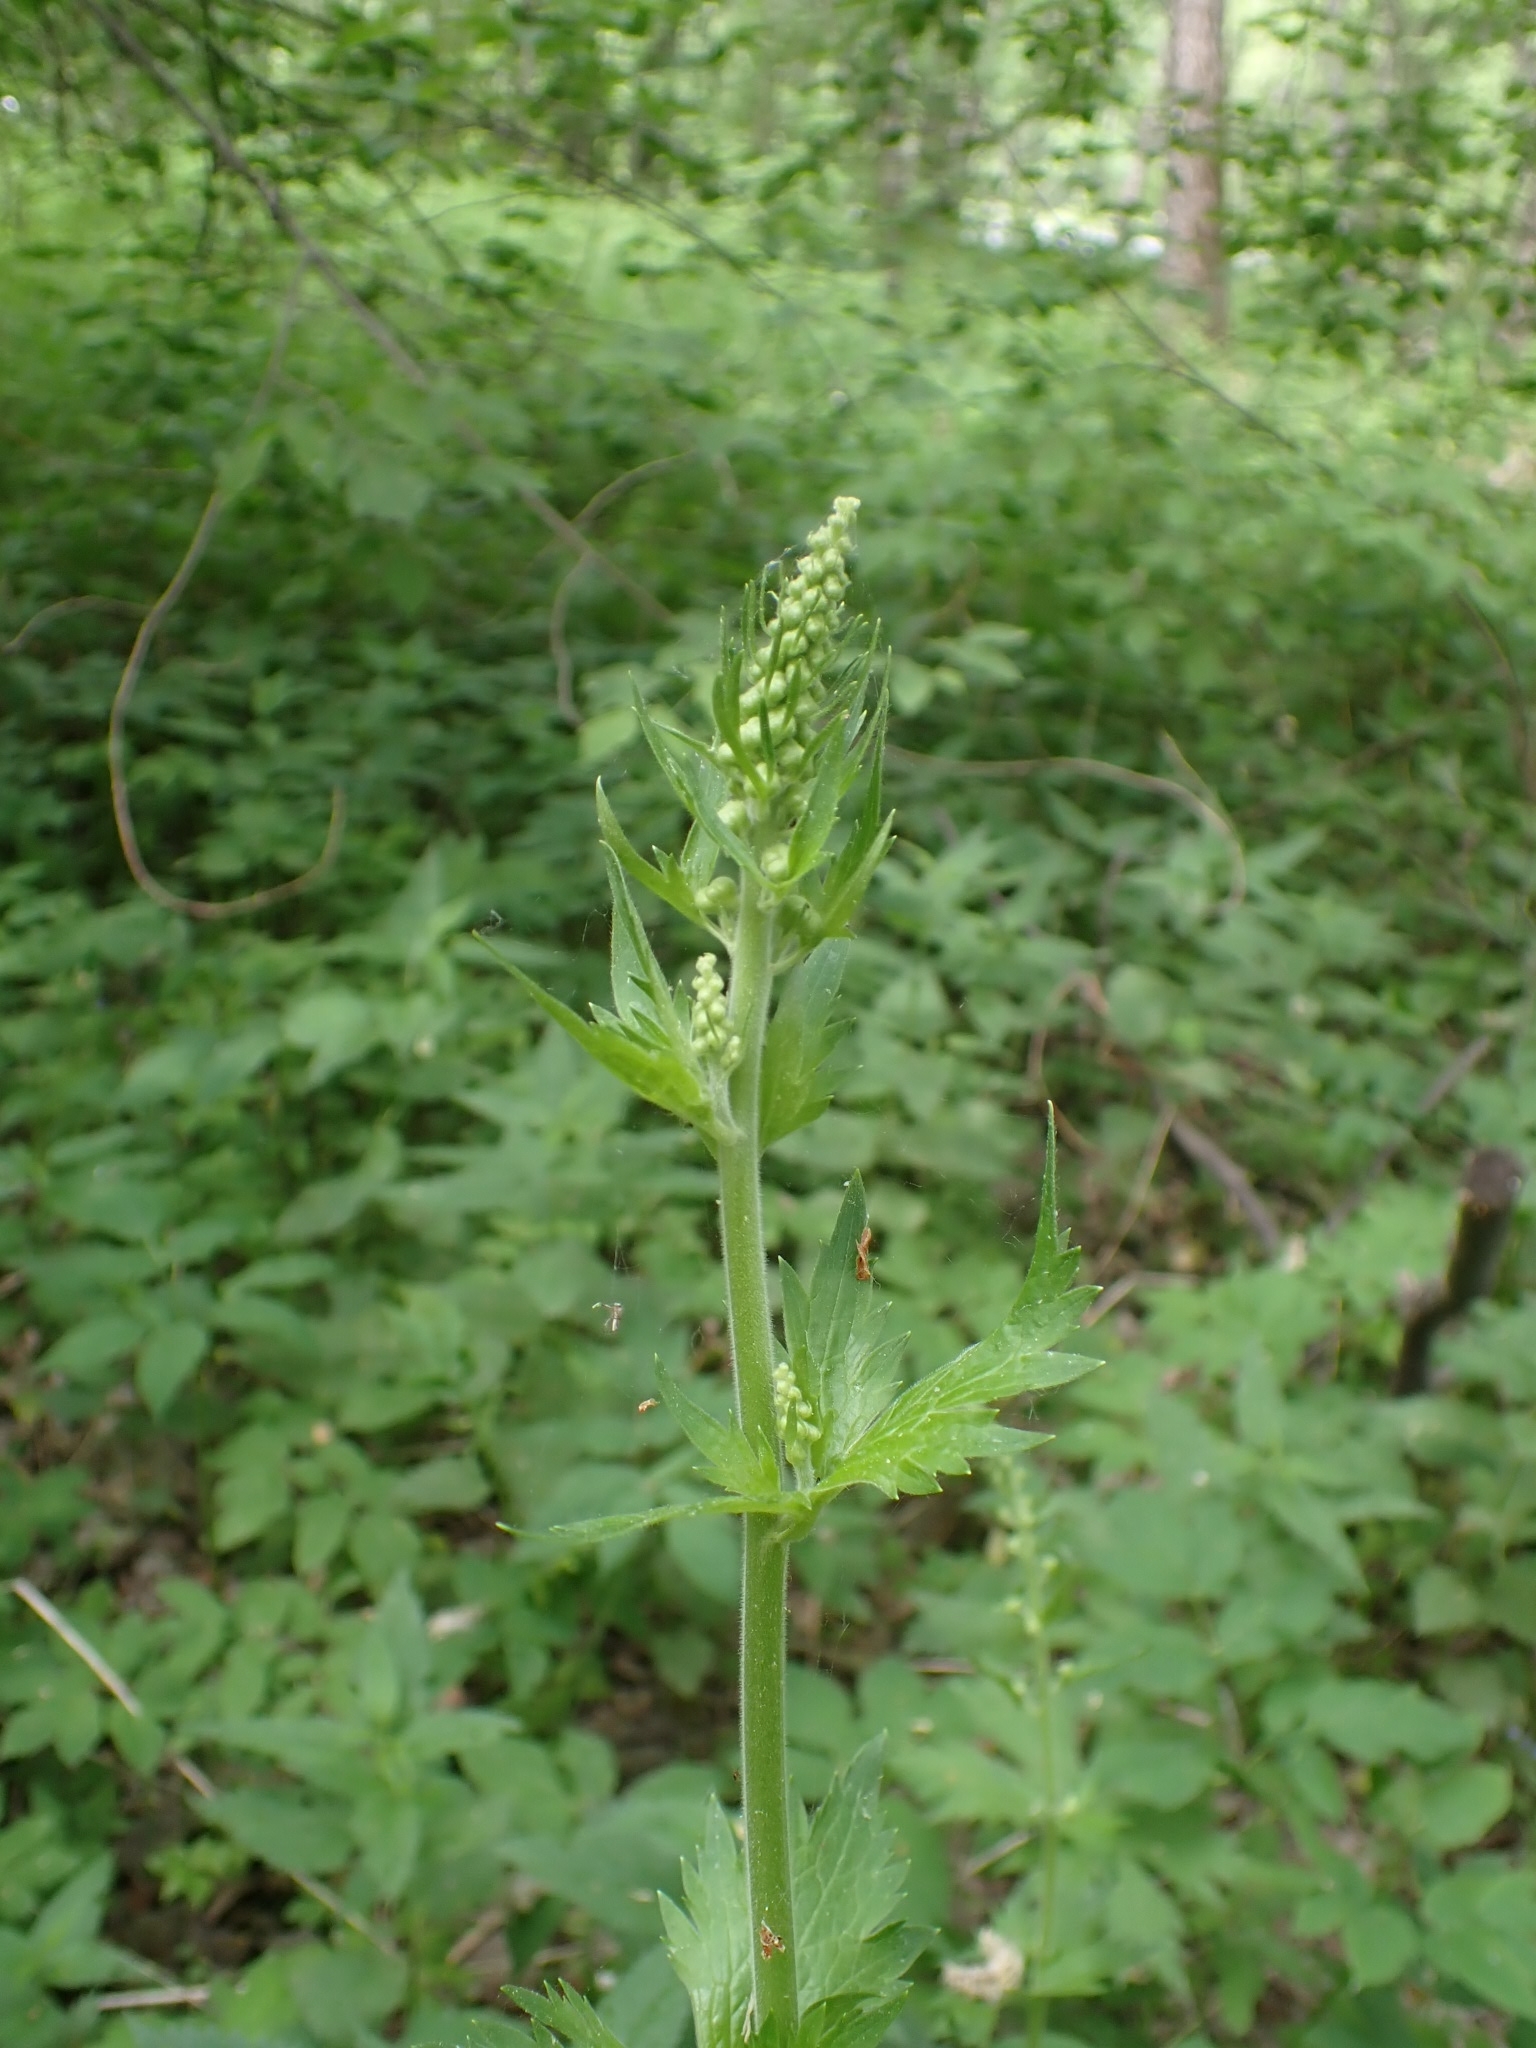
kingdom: Plantae
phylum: Tracheophyta
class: Magnoliopsida
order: Ranunculales
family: Ranunculaceae
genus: Aconitum
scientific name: Aconitum septentrionale
